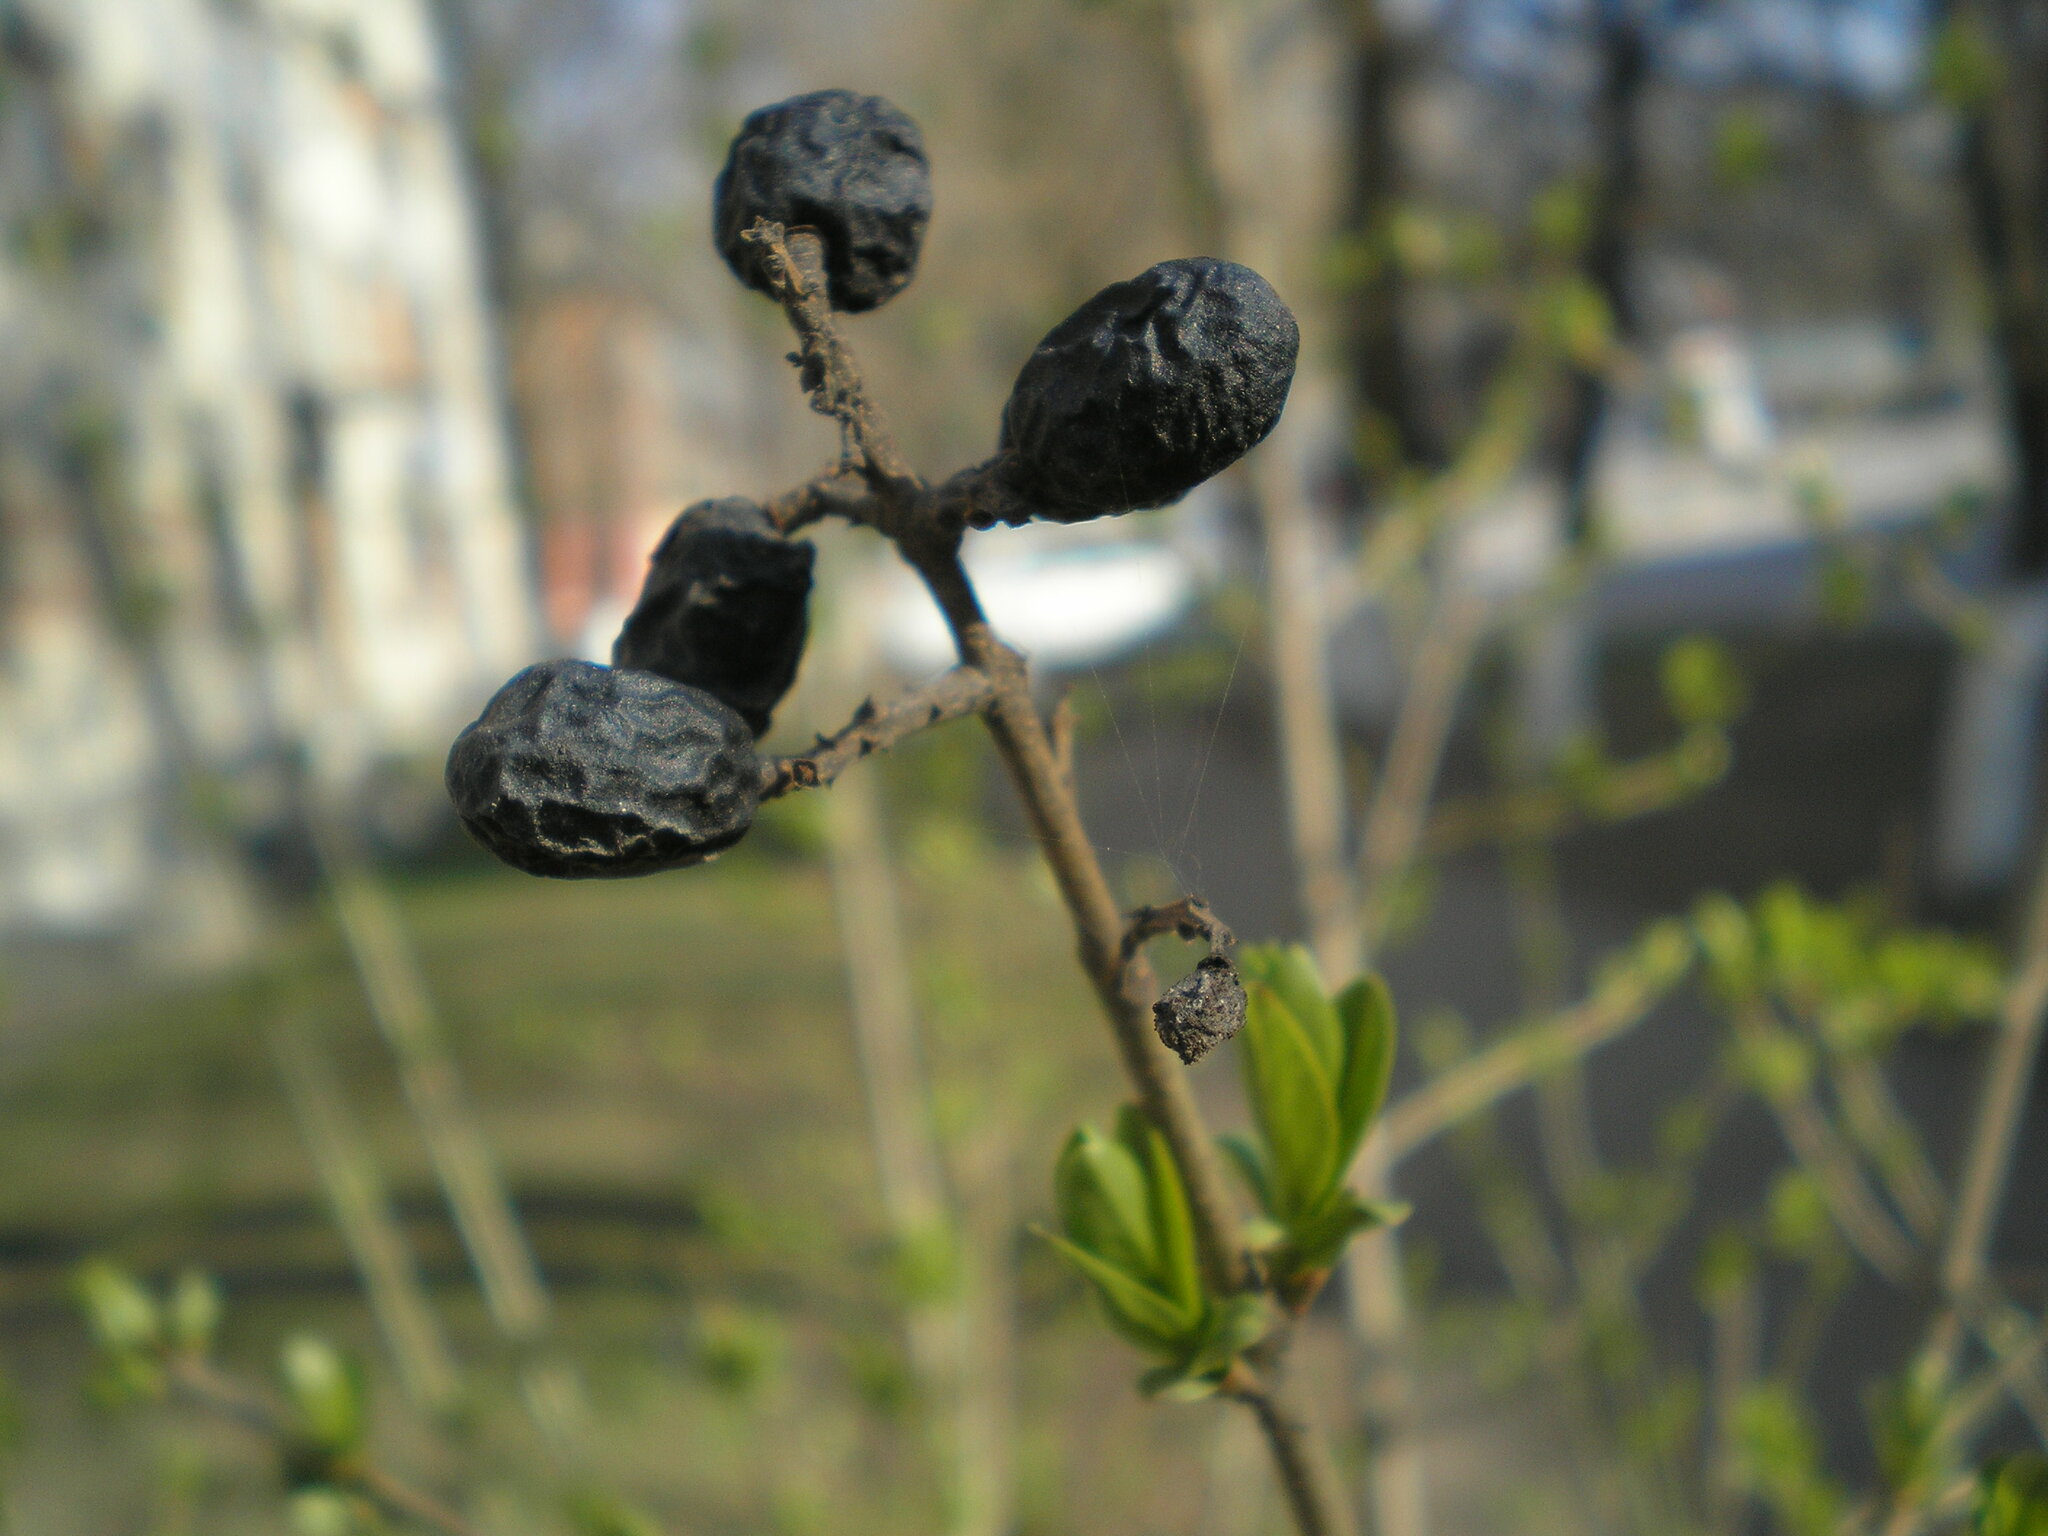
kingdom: Plantae
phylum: Tracheophyta
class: Magnoliopsida
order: Lamiales
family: Oleaceae
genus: Ligustrum
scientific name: Ligustrum vulgare
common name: Wild privet
